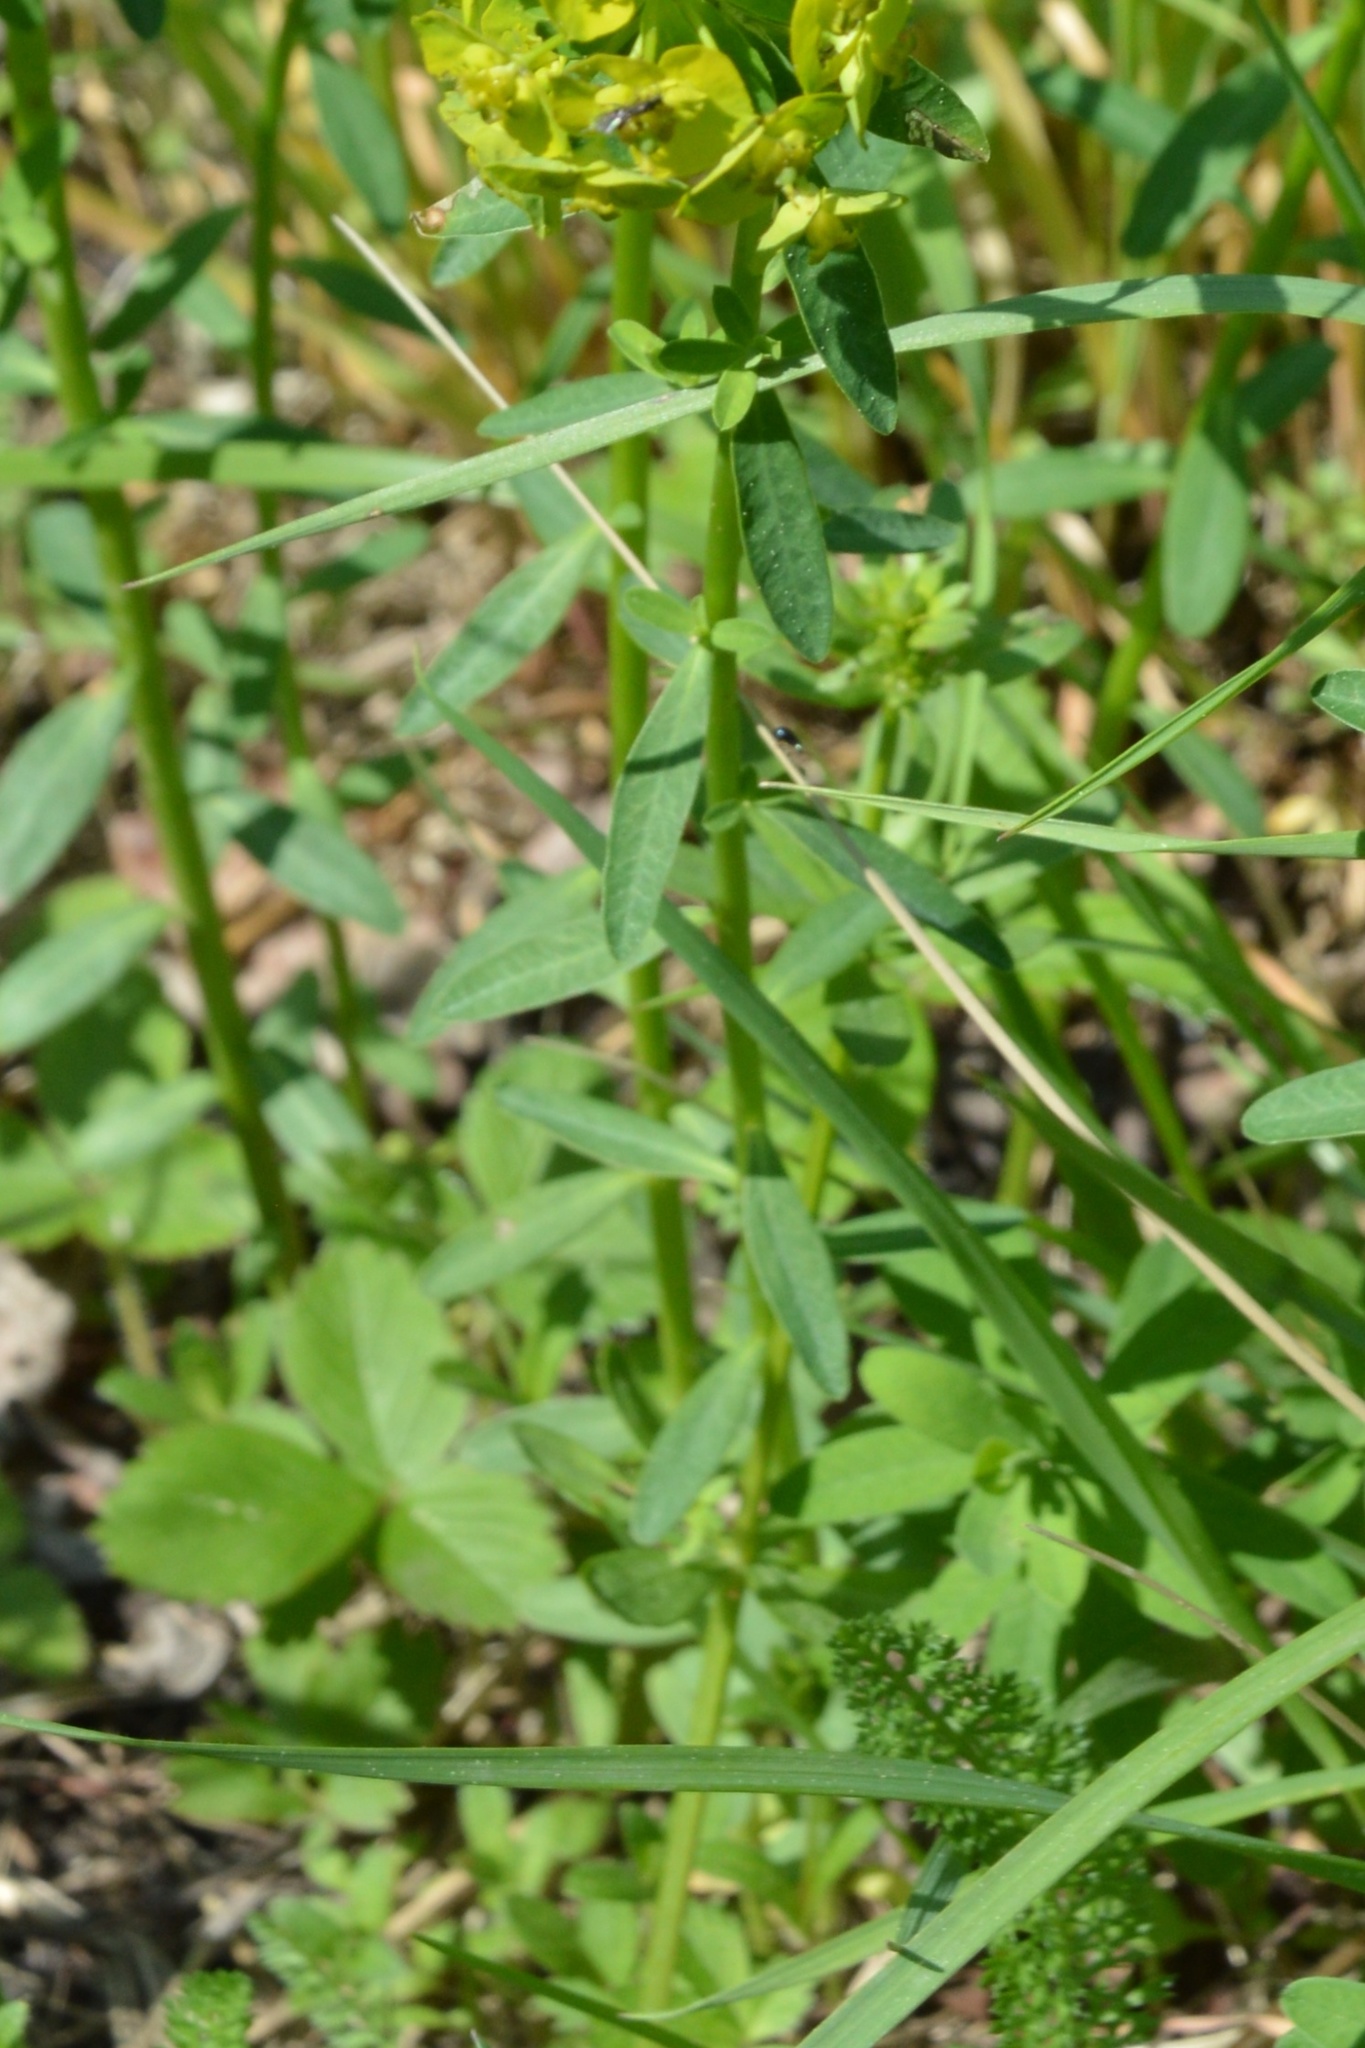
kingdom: Plantae
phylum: Tracheophyta
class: Magnoliopsida
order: Malpighiales
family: Euphorbiaceae
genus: Euphorbia
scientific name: Euphorbia esula
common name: Leafy spurge
